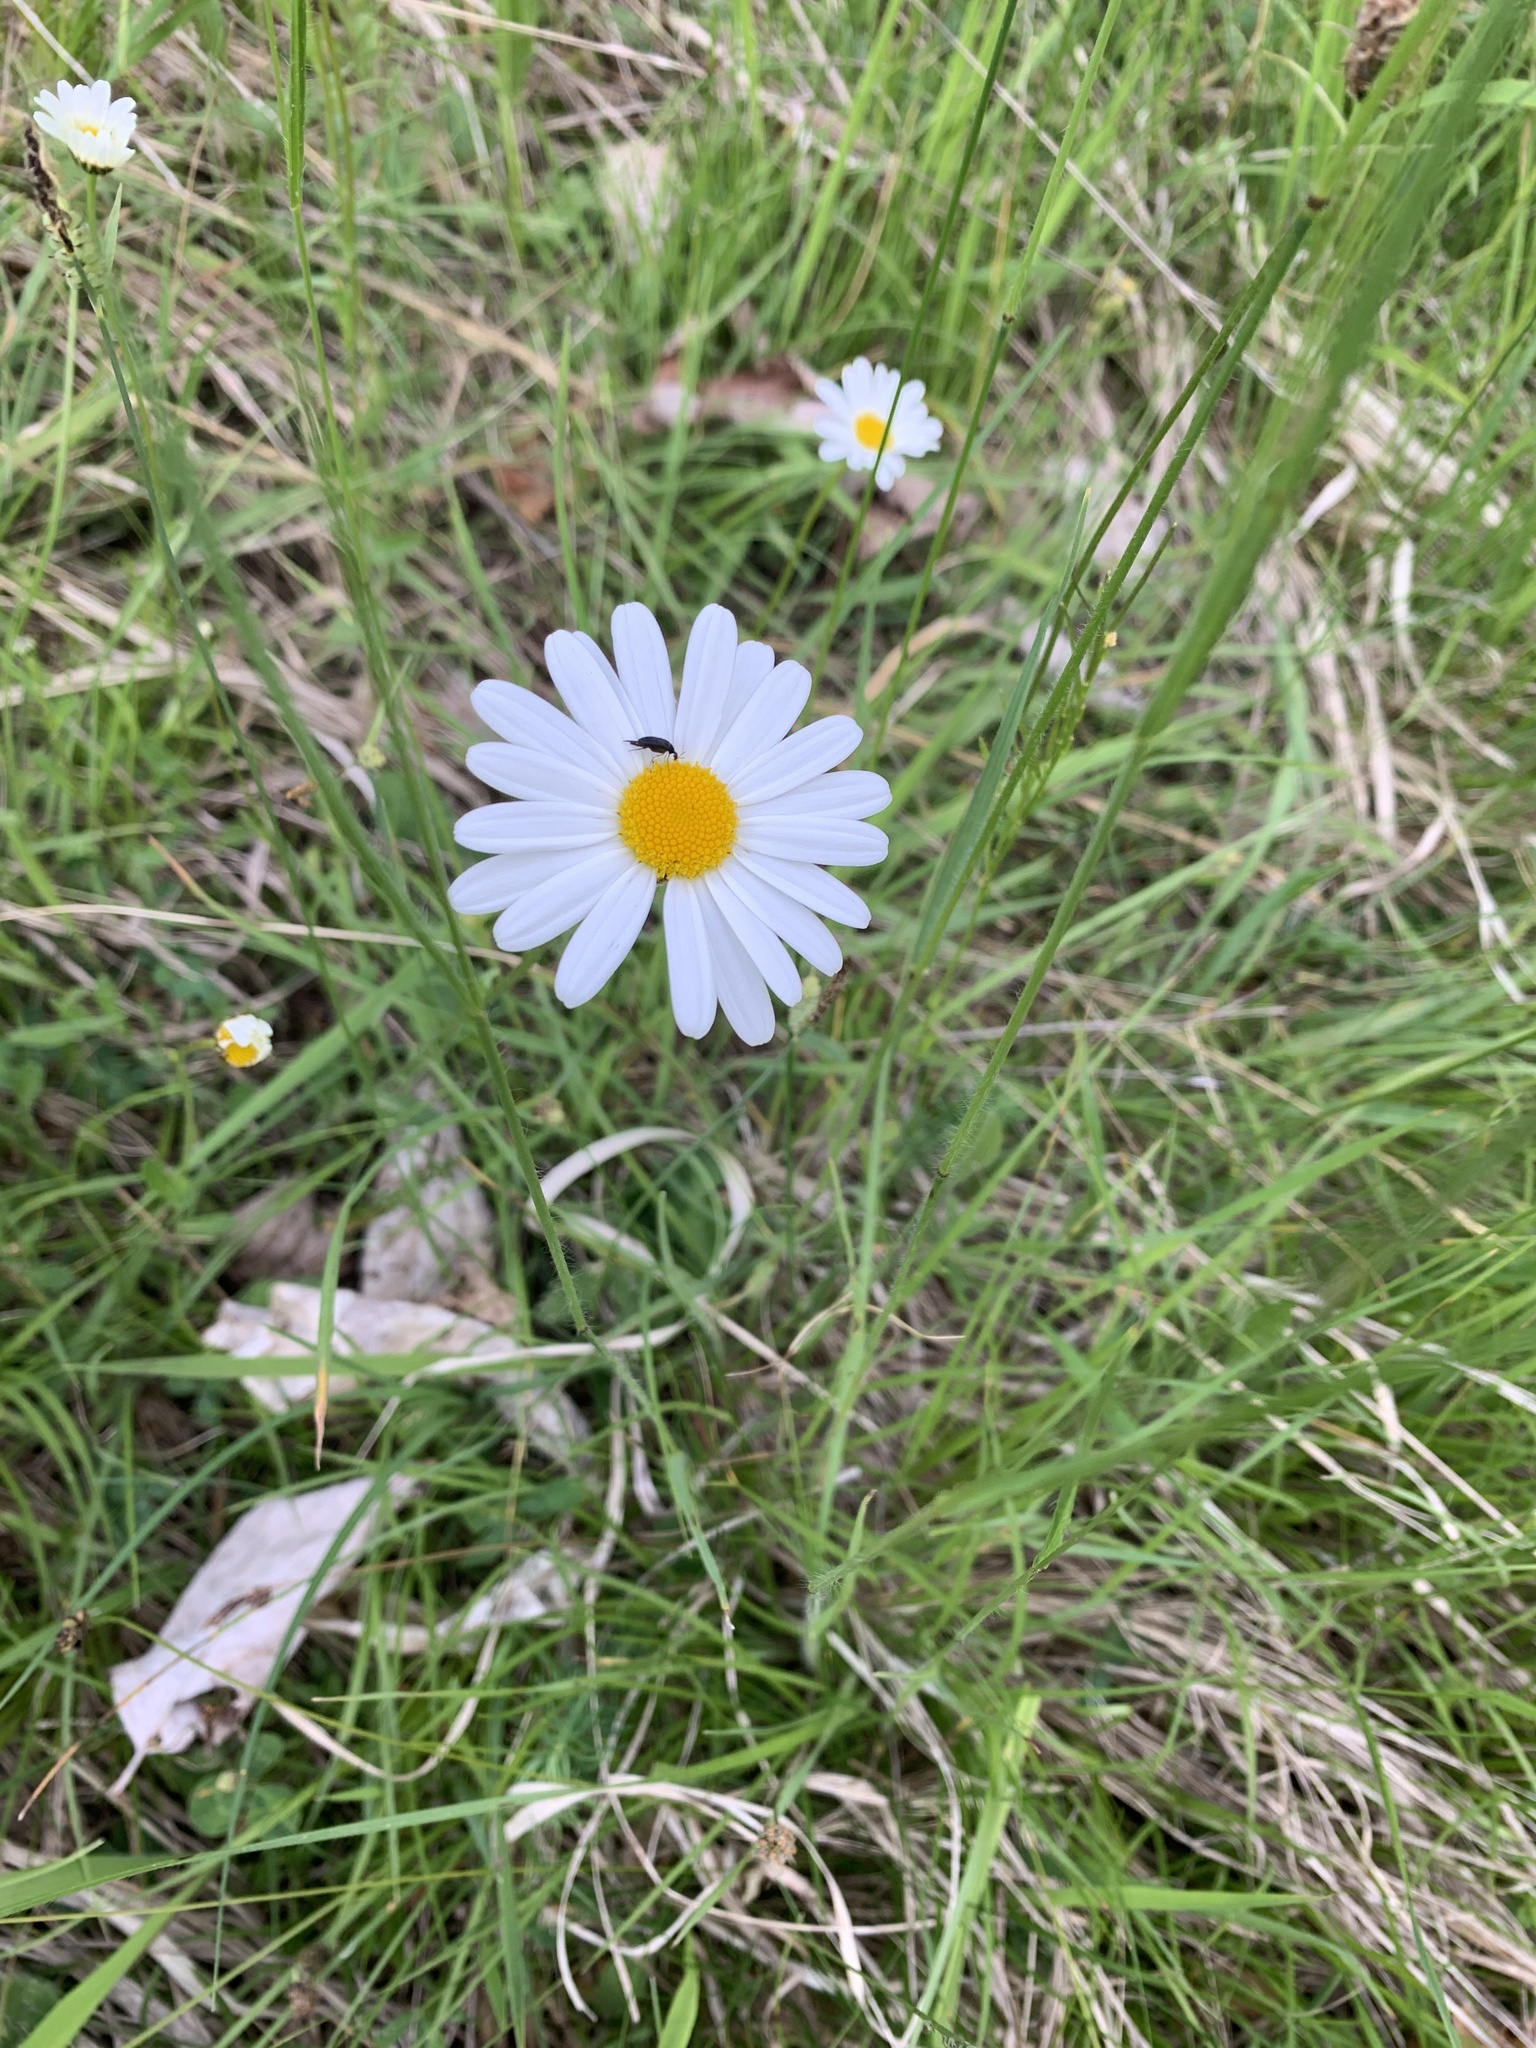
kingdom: Plantae
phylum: Tracheophyta
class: Magnoliopsida
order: Asterales
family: Asteraceae
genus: Leucanthemum
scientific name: Leucanthemum vulgare
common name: Oxeye daisy
